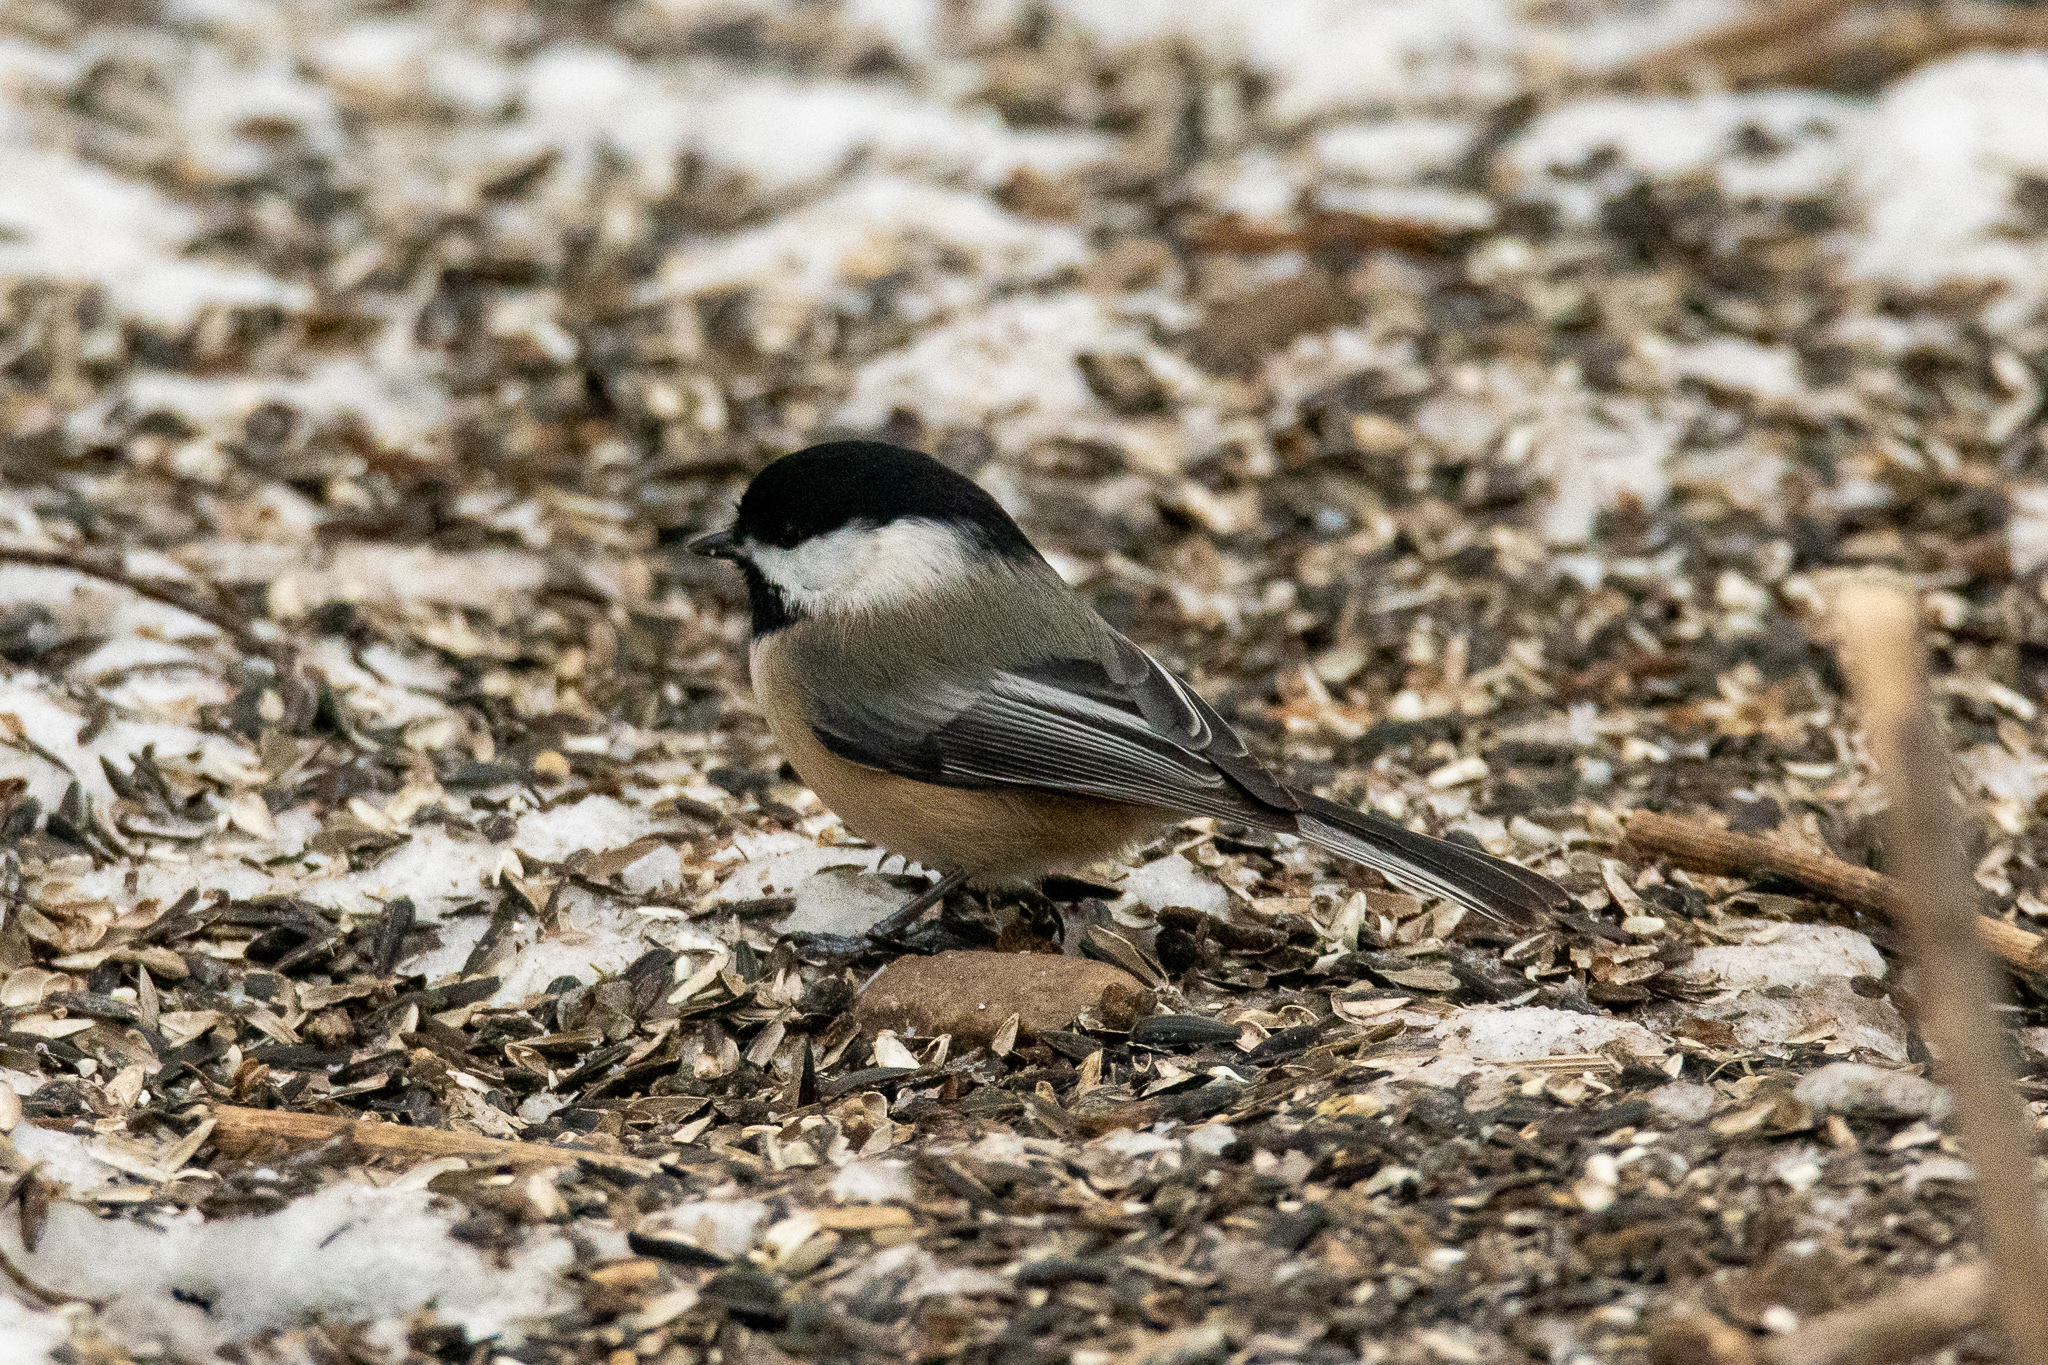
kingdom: Animalia
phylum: Chordata
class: Aves
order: Passeriformes
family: Paridae
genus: Poecile
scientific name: Poecile atricapillus
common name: Black-capped chickadee
